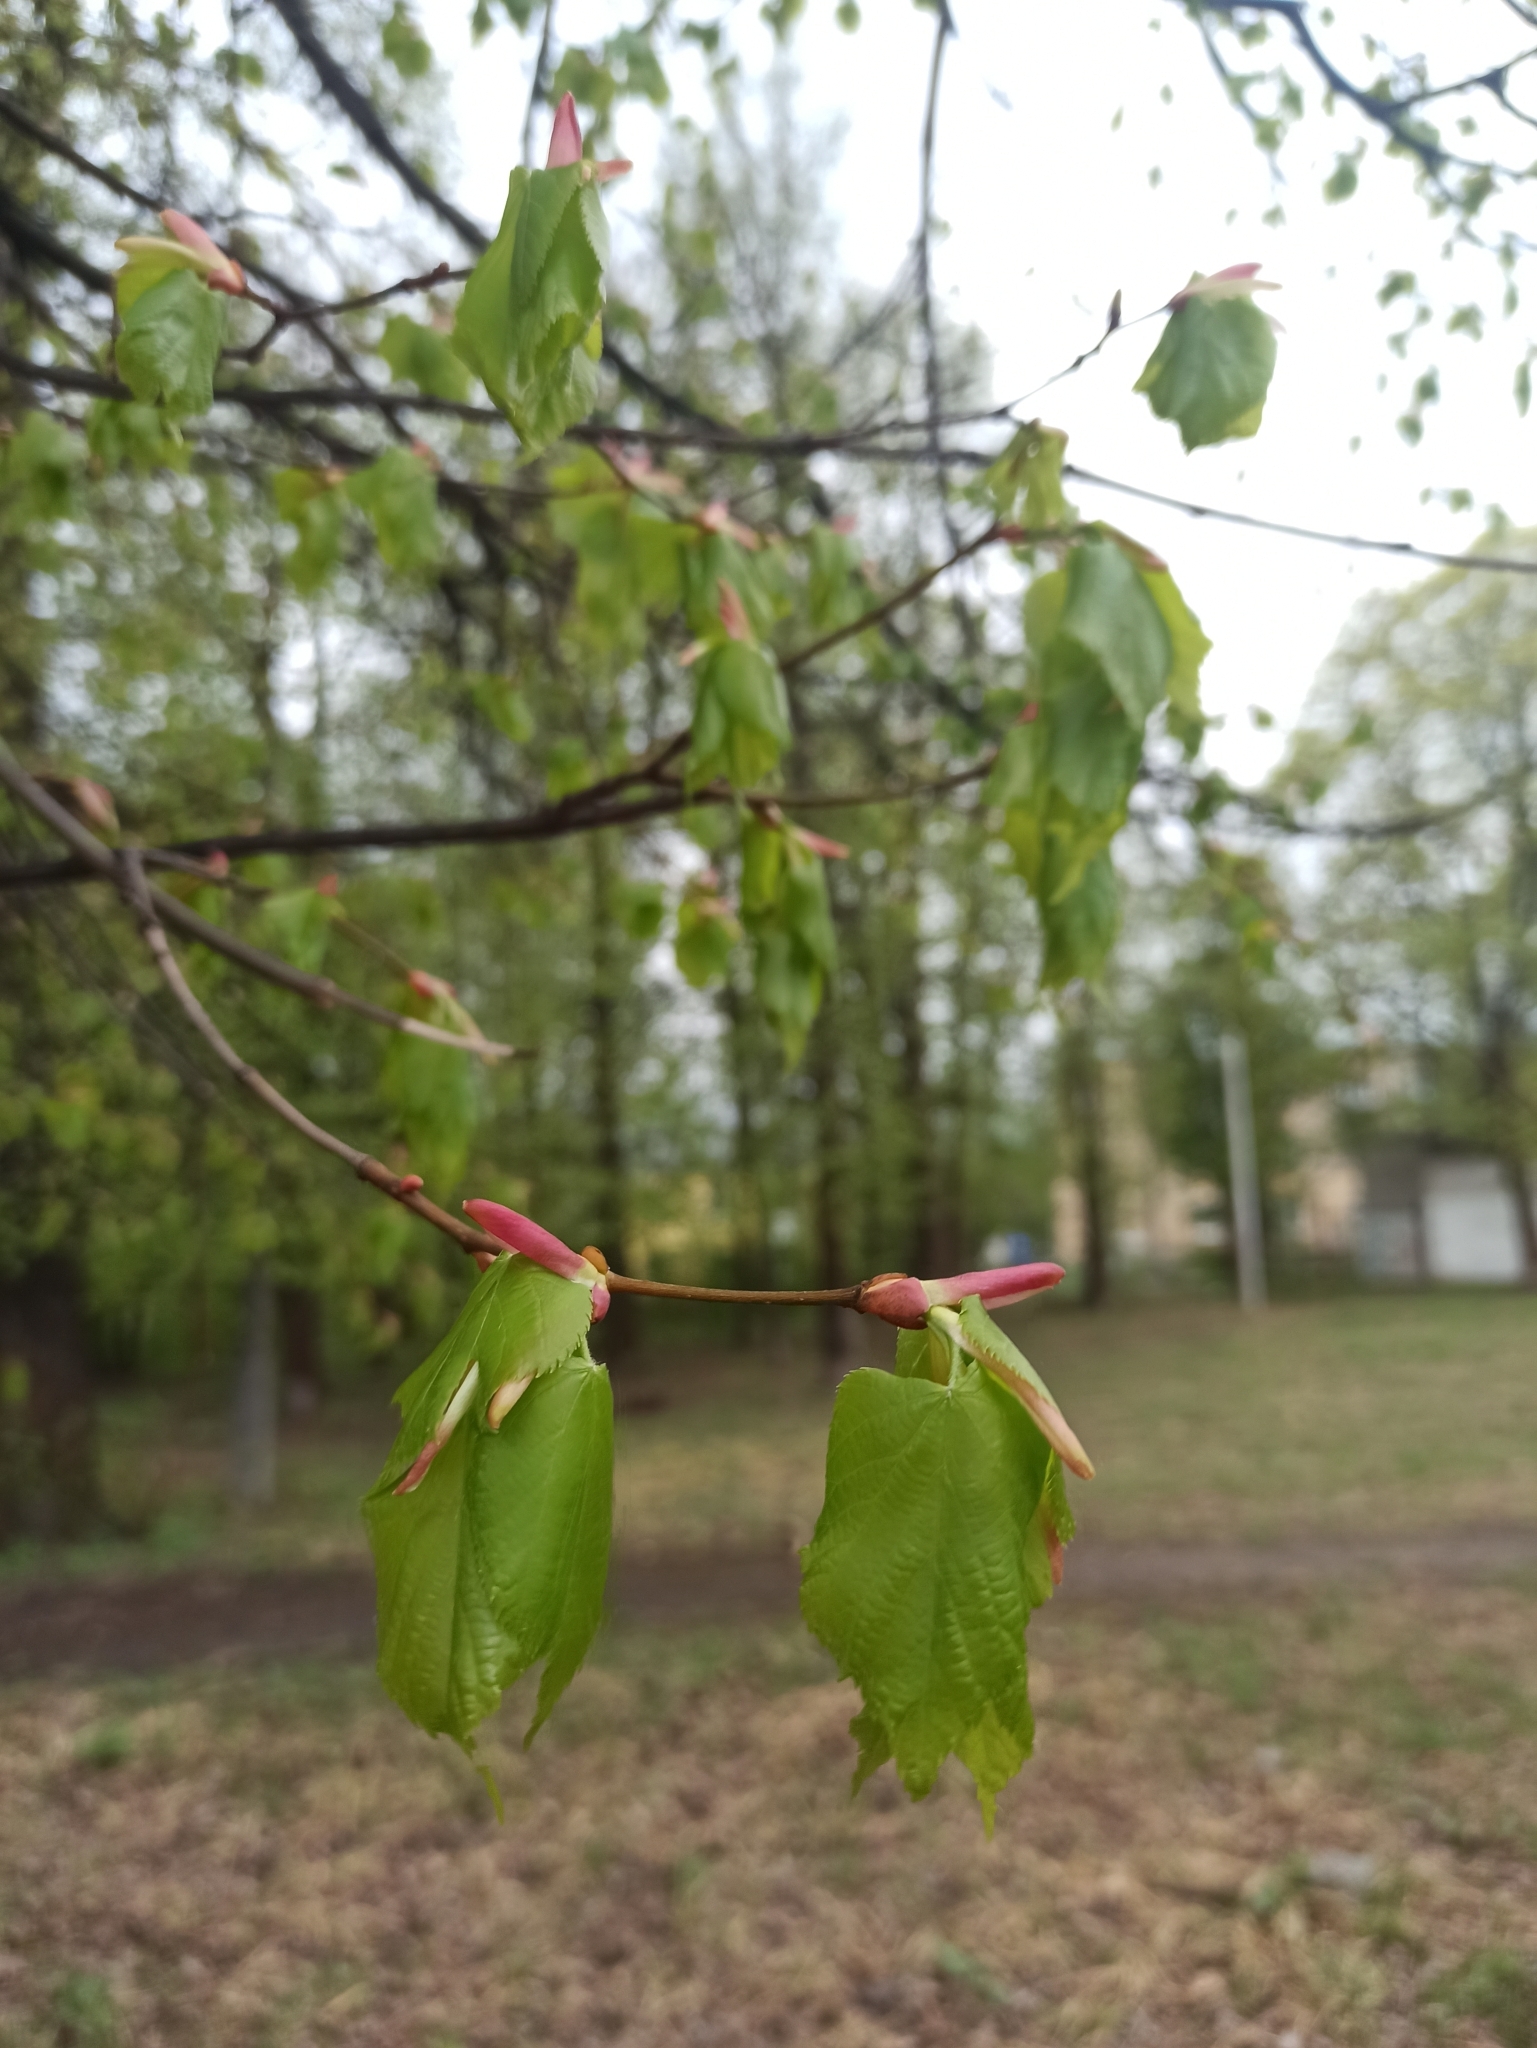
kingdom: Plantae
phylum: Tracheophyta
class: Magnoliopsida
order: Malvales
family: Malvaceae
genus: Tilia
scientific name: Tilia cordata
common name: Small-leaved lime
